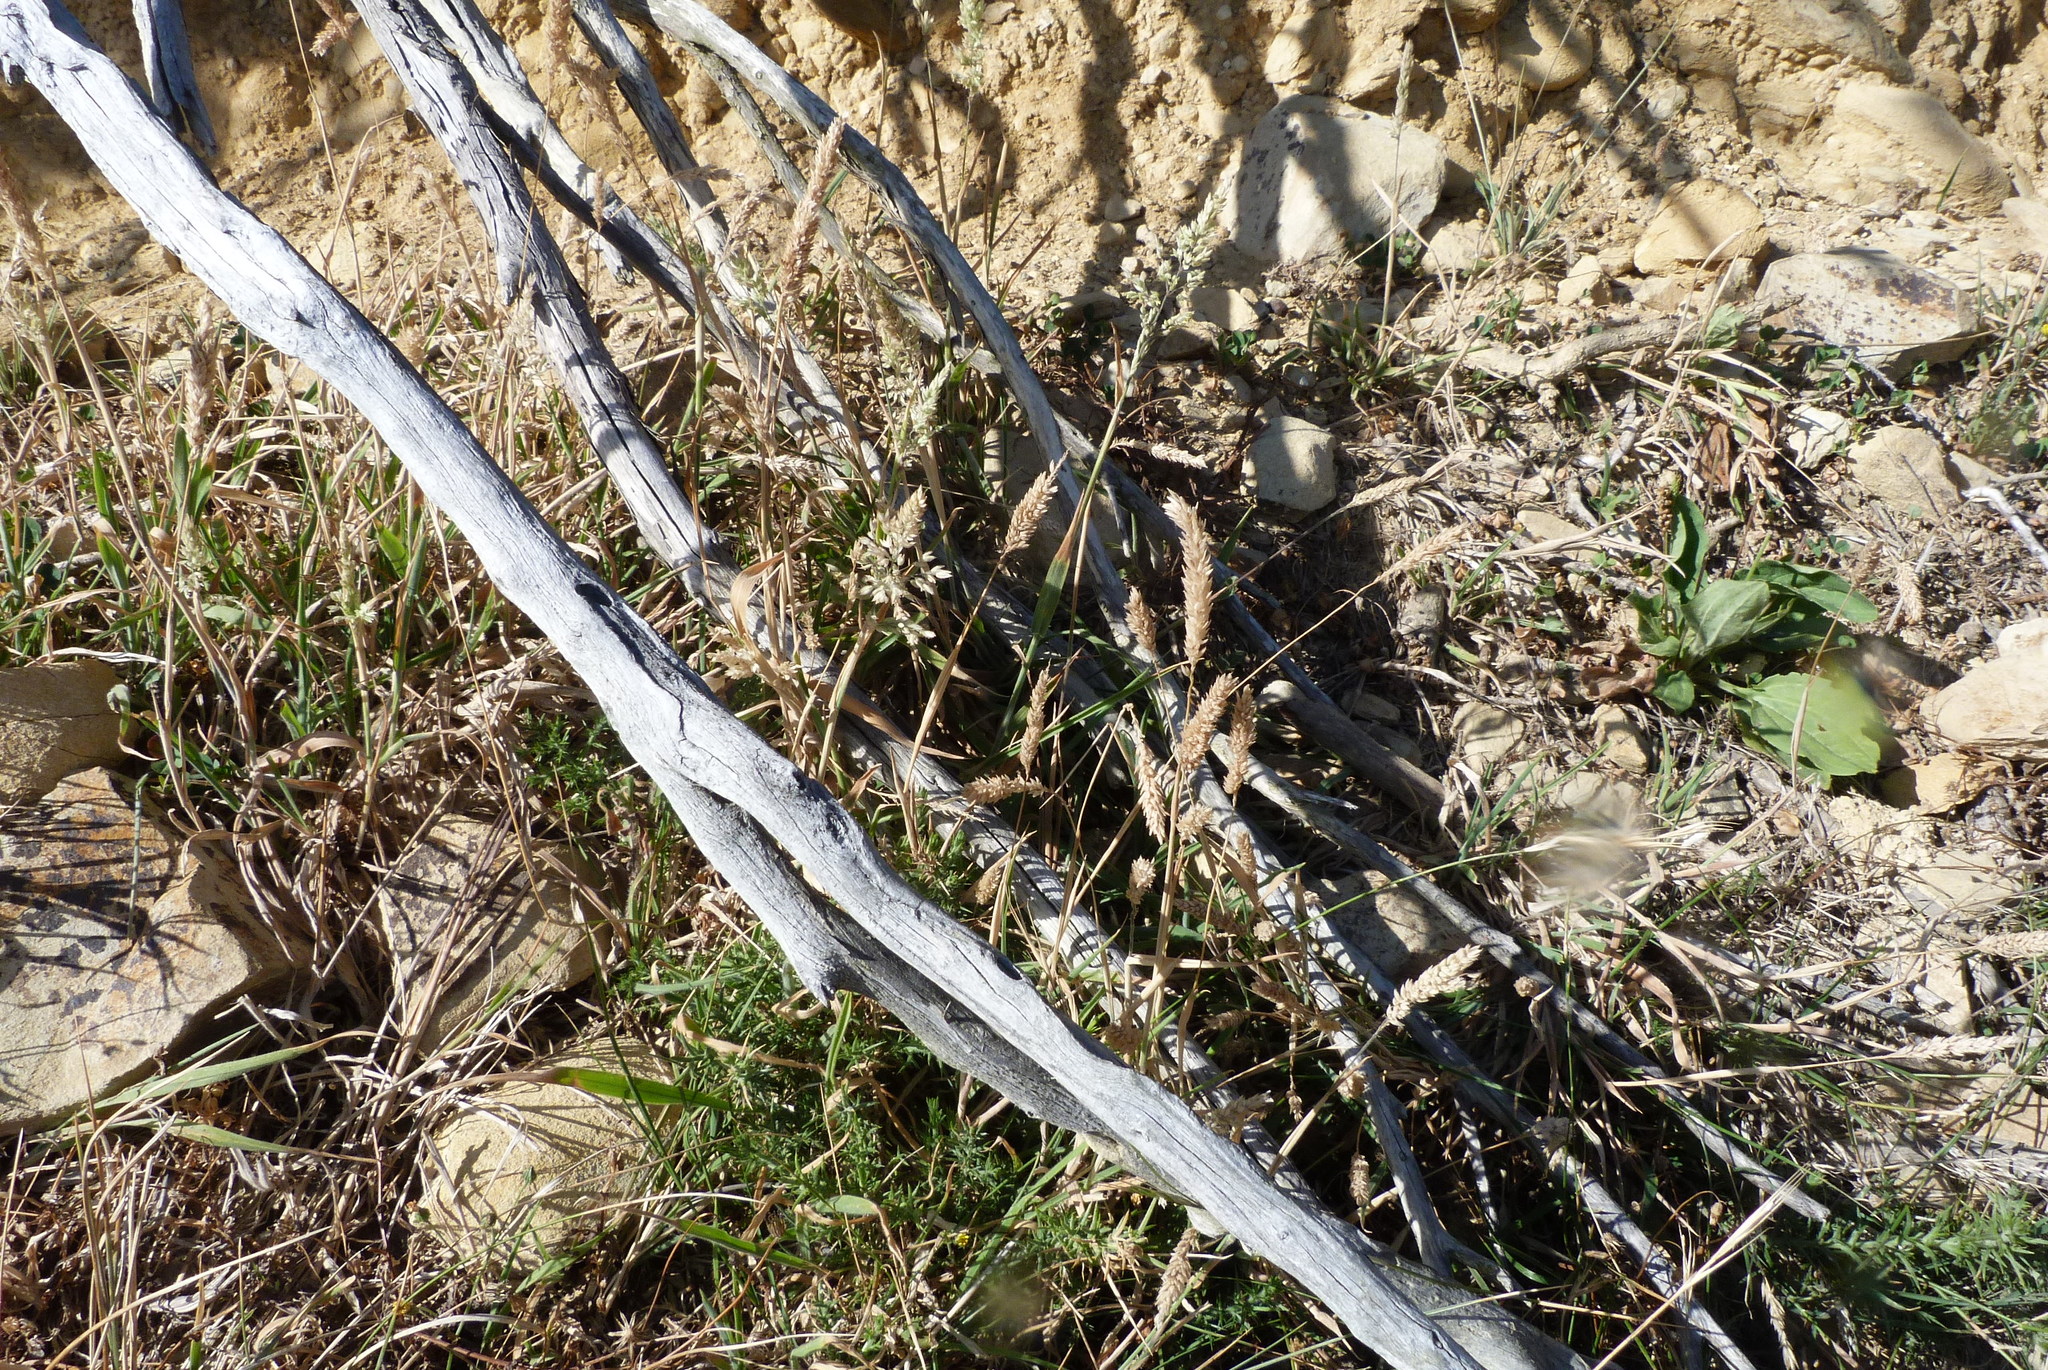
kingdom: Plantae
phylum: Tracheophyta
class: Liliopsida
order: Poales
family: Poaceae
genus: Holcus
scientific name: Holcus lanatus
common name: Yorkshire-fog
